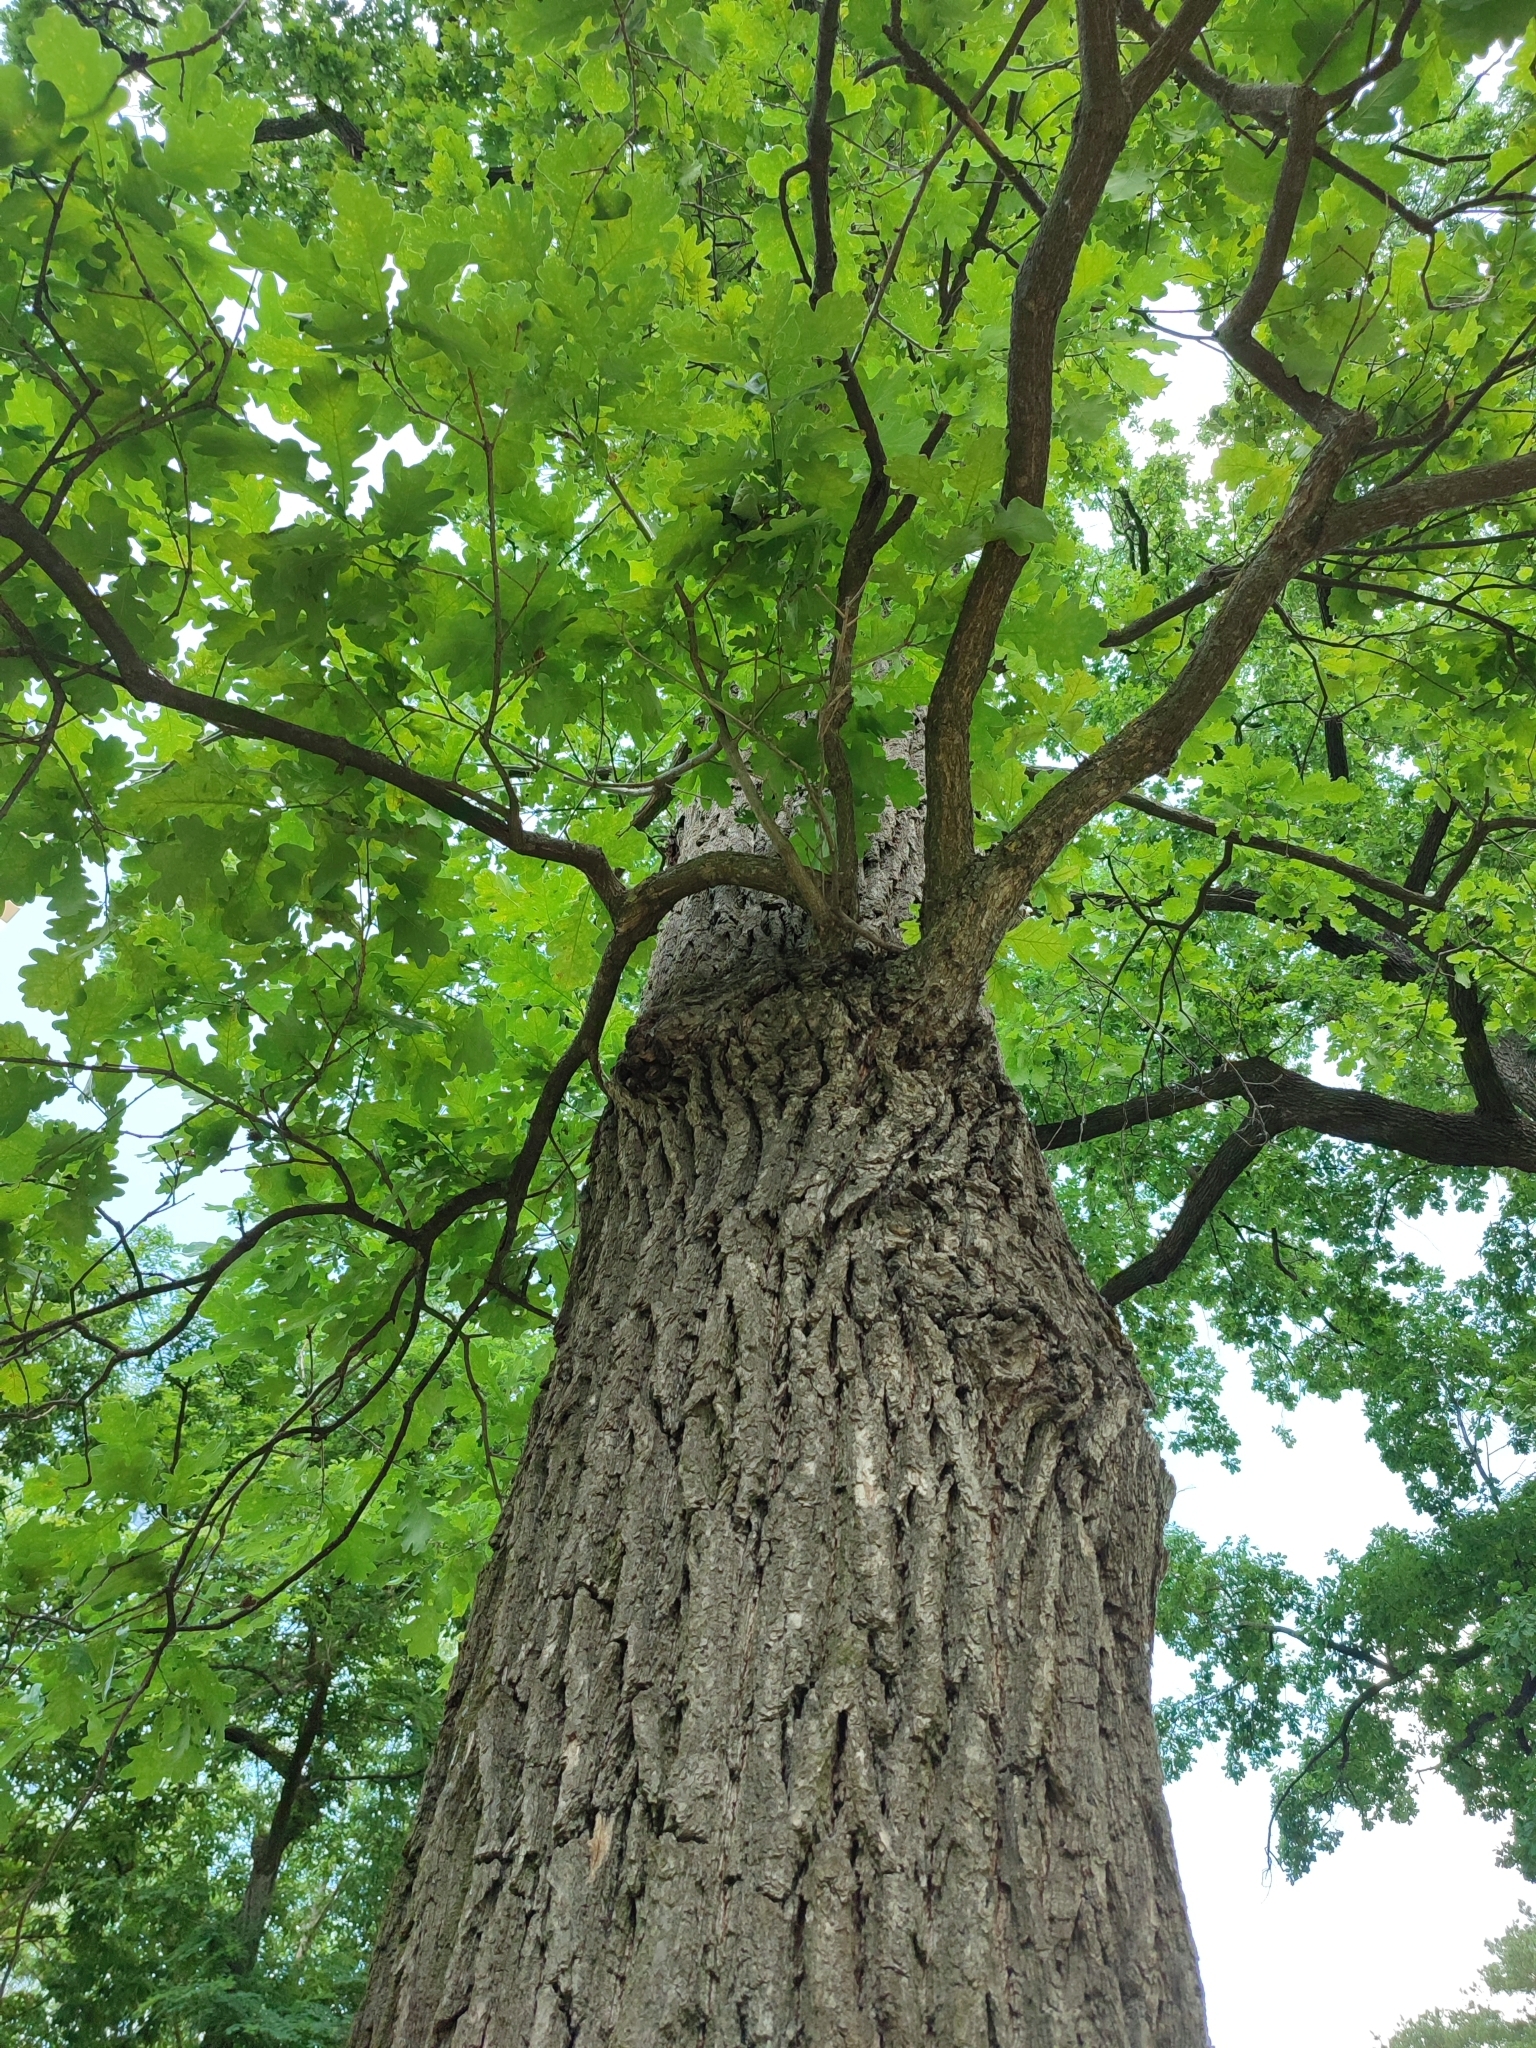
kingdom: Plantae
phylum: Tracheophyta
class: Magnoliopsida
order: Fagales
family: Fagaceae
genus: Quercus
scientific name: Quercus robur
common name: Pedunculate oak
